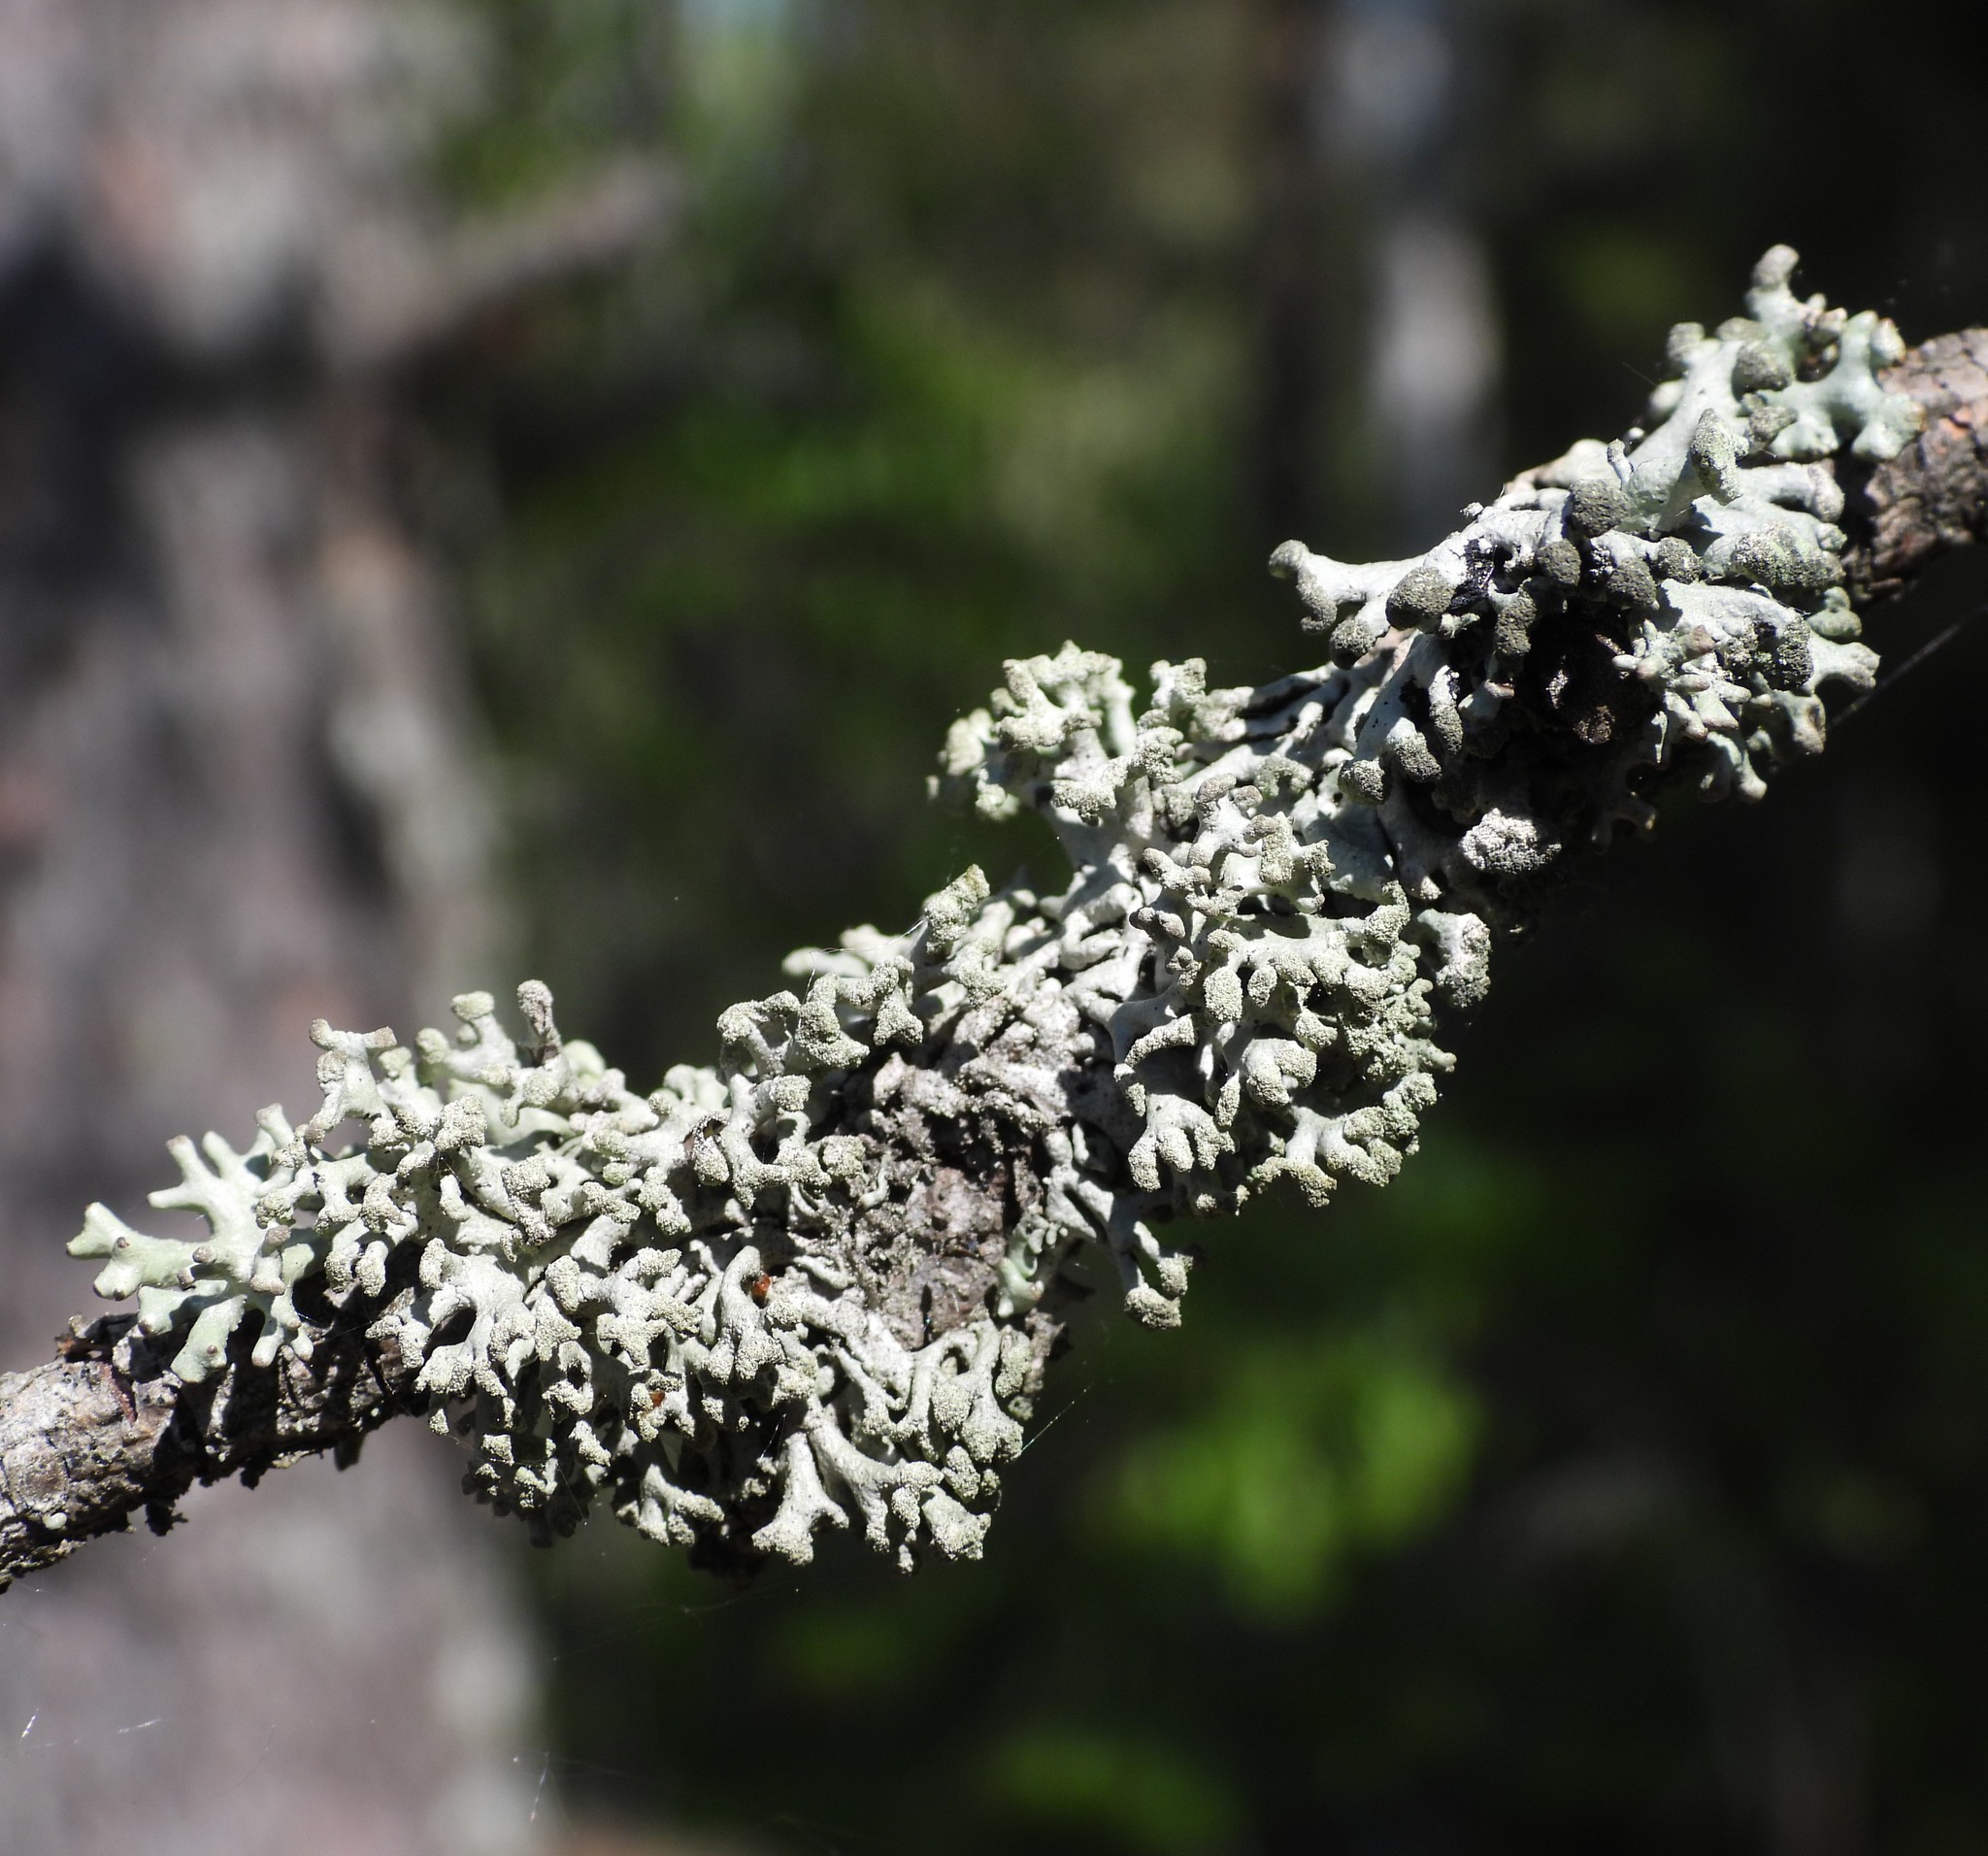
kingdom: Fungi
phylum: Ascomycota
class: Lecanoromycetes
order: Lecanorales
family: Parmeliaceae
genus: Hypogymnia
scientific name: Hypogymnia tubulosa
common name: Powder-headed tube lichen
